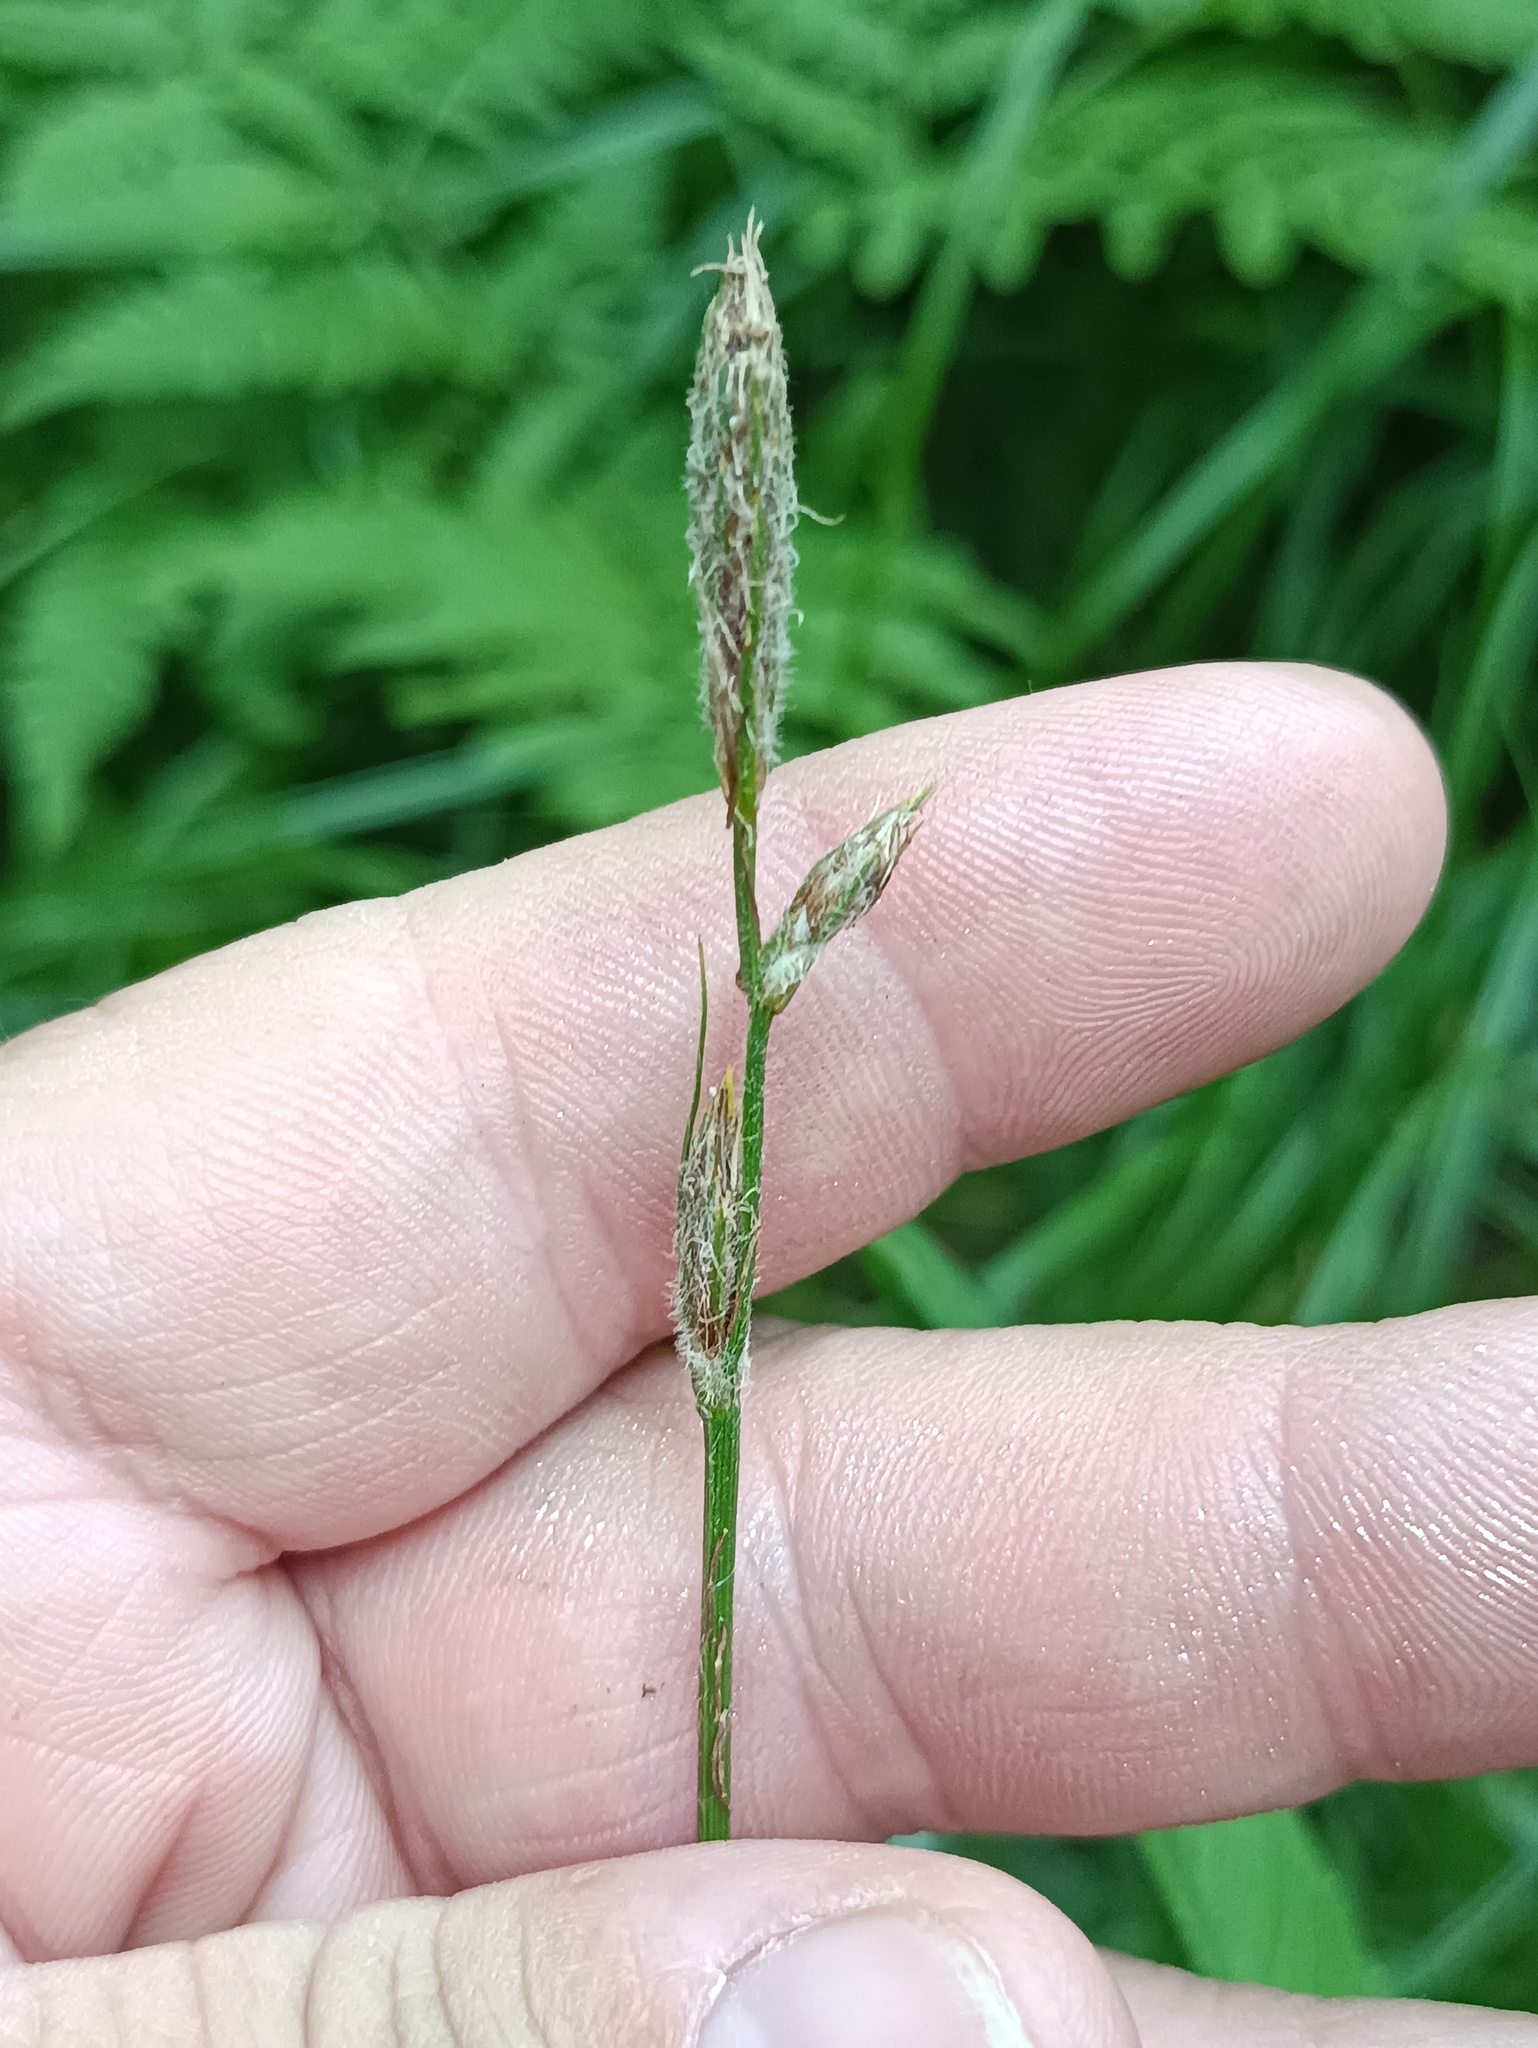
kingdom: Plantae
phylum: Tracheophyta
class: Liliopsida
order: Poales
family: Cyperaceae
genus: Carex
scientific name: Carex hirta
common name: Hairy sedge
